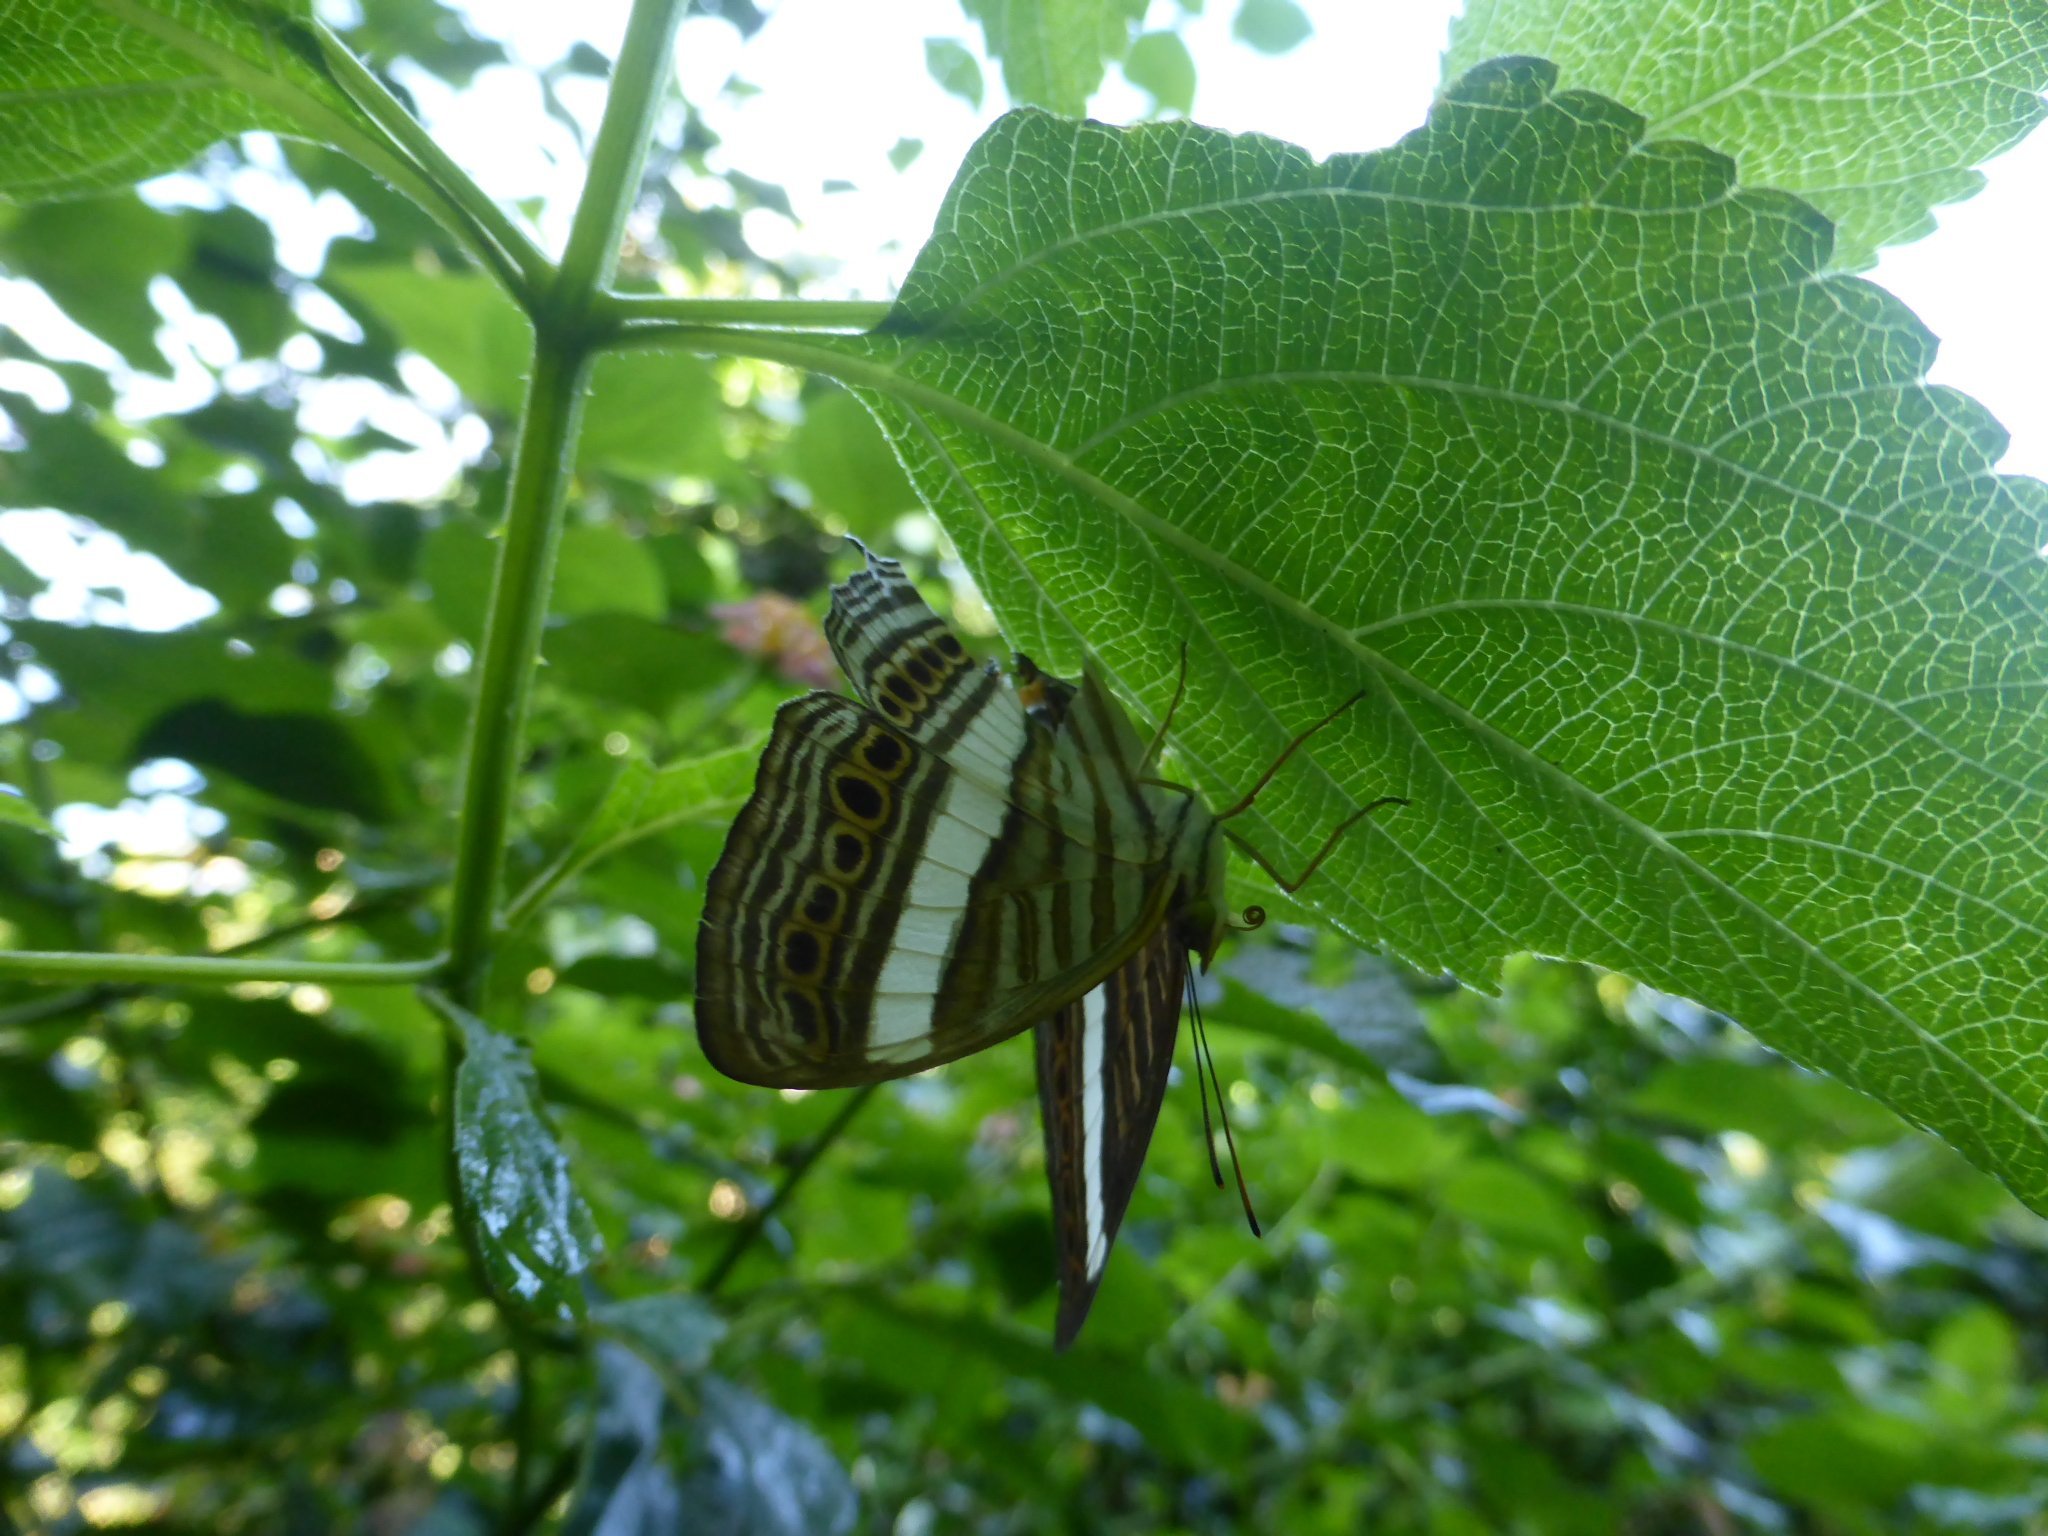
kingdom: Animalia
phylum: Arthropoda
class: Insecta
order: Lepidoptera
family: Nymphalidae
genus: Cyrestis
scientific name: Cyrestis strigata
